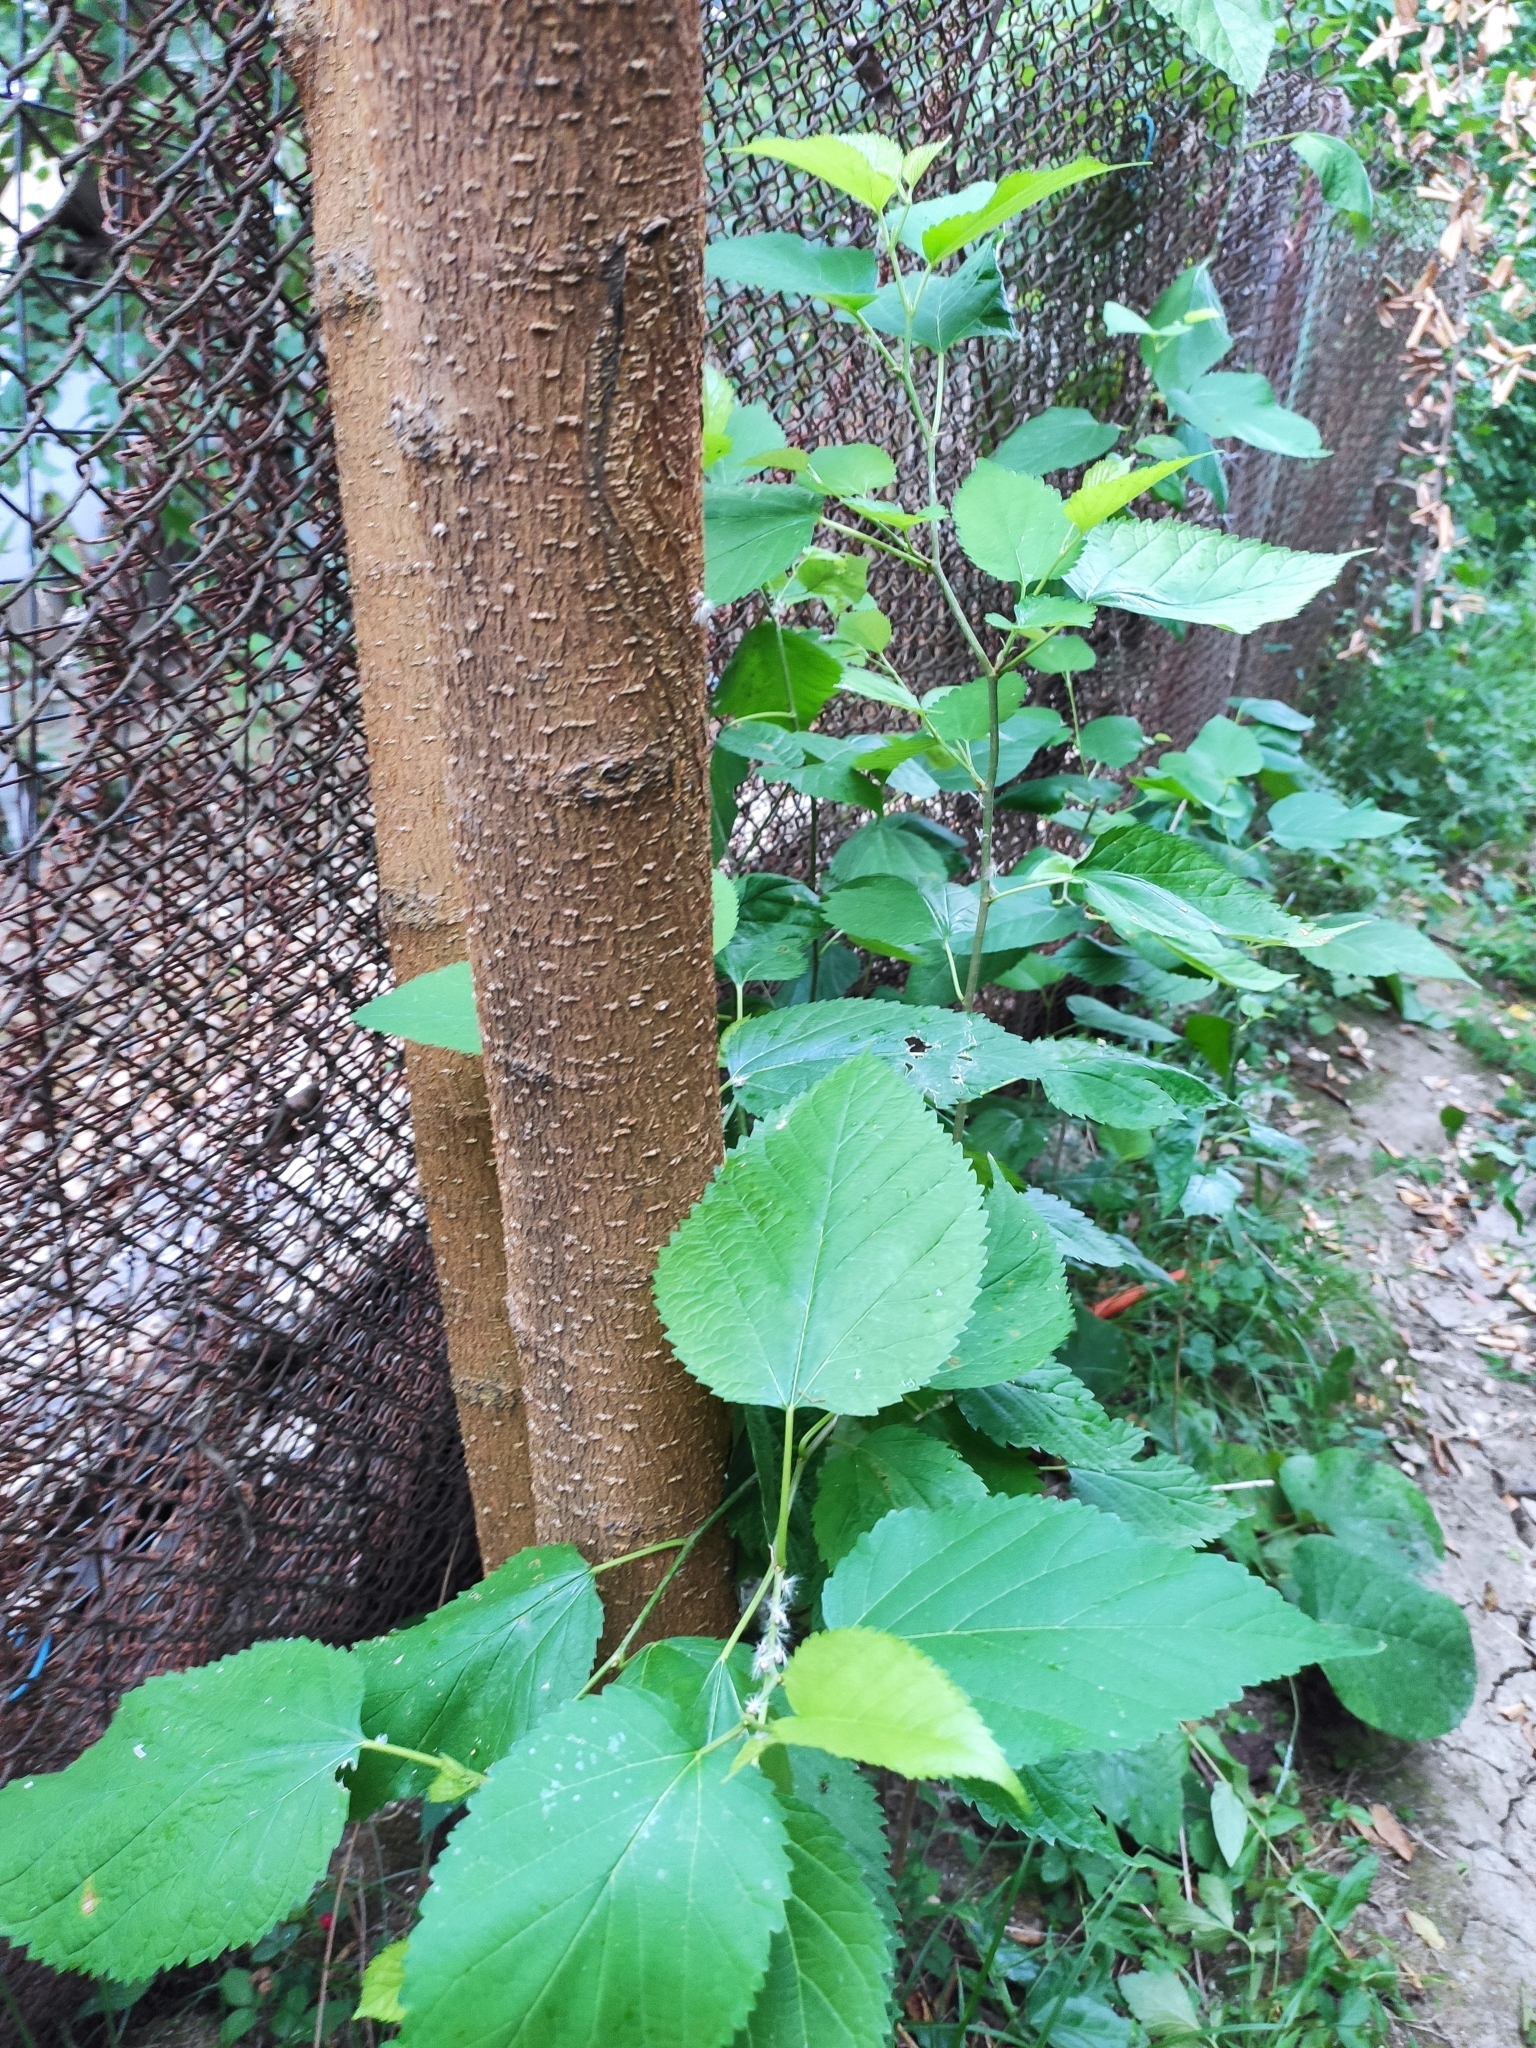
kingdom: Plantae
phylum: Tracheophyta
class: Magnoliopsida
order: Rosales
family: Moraceae
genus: Morus
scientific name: Morus alba
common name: White mulberry
